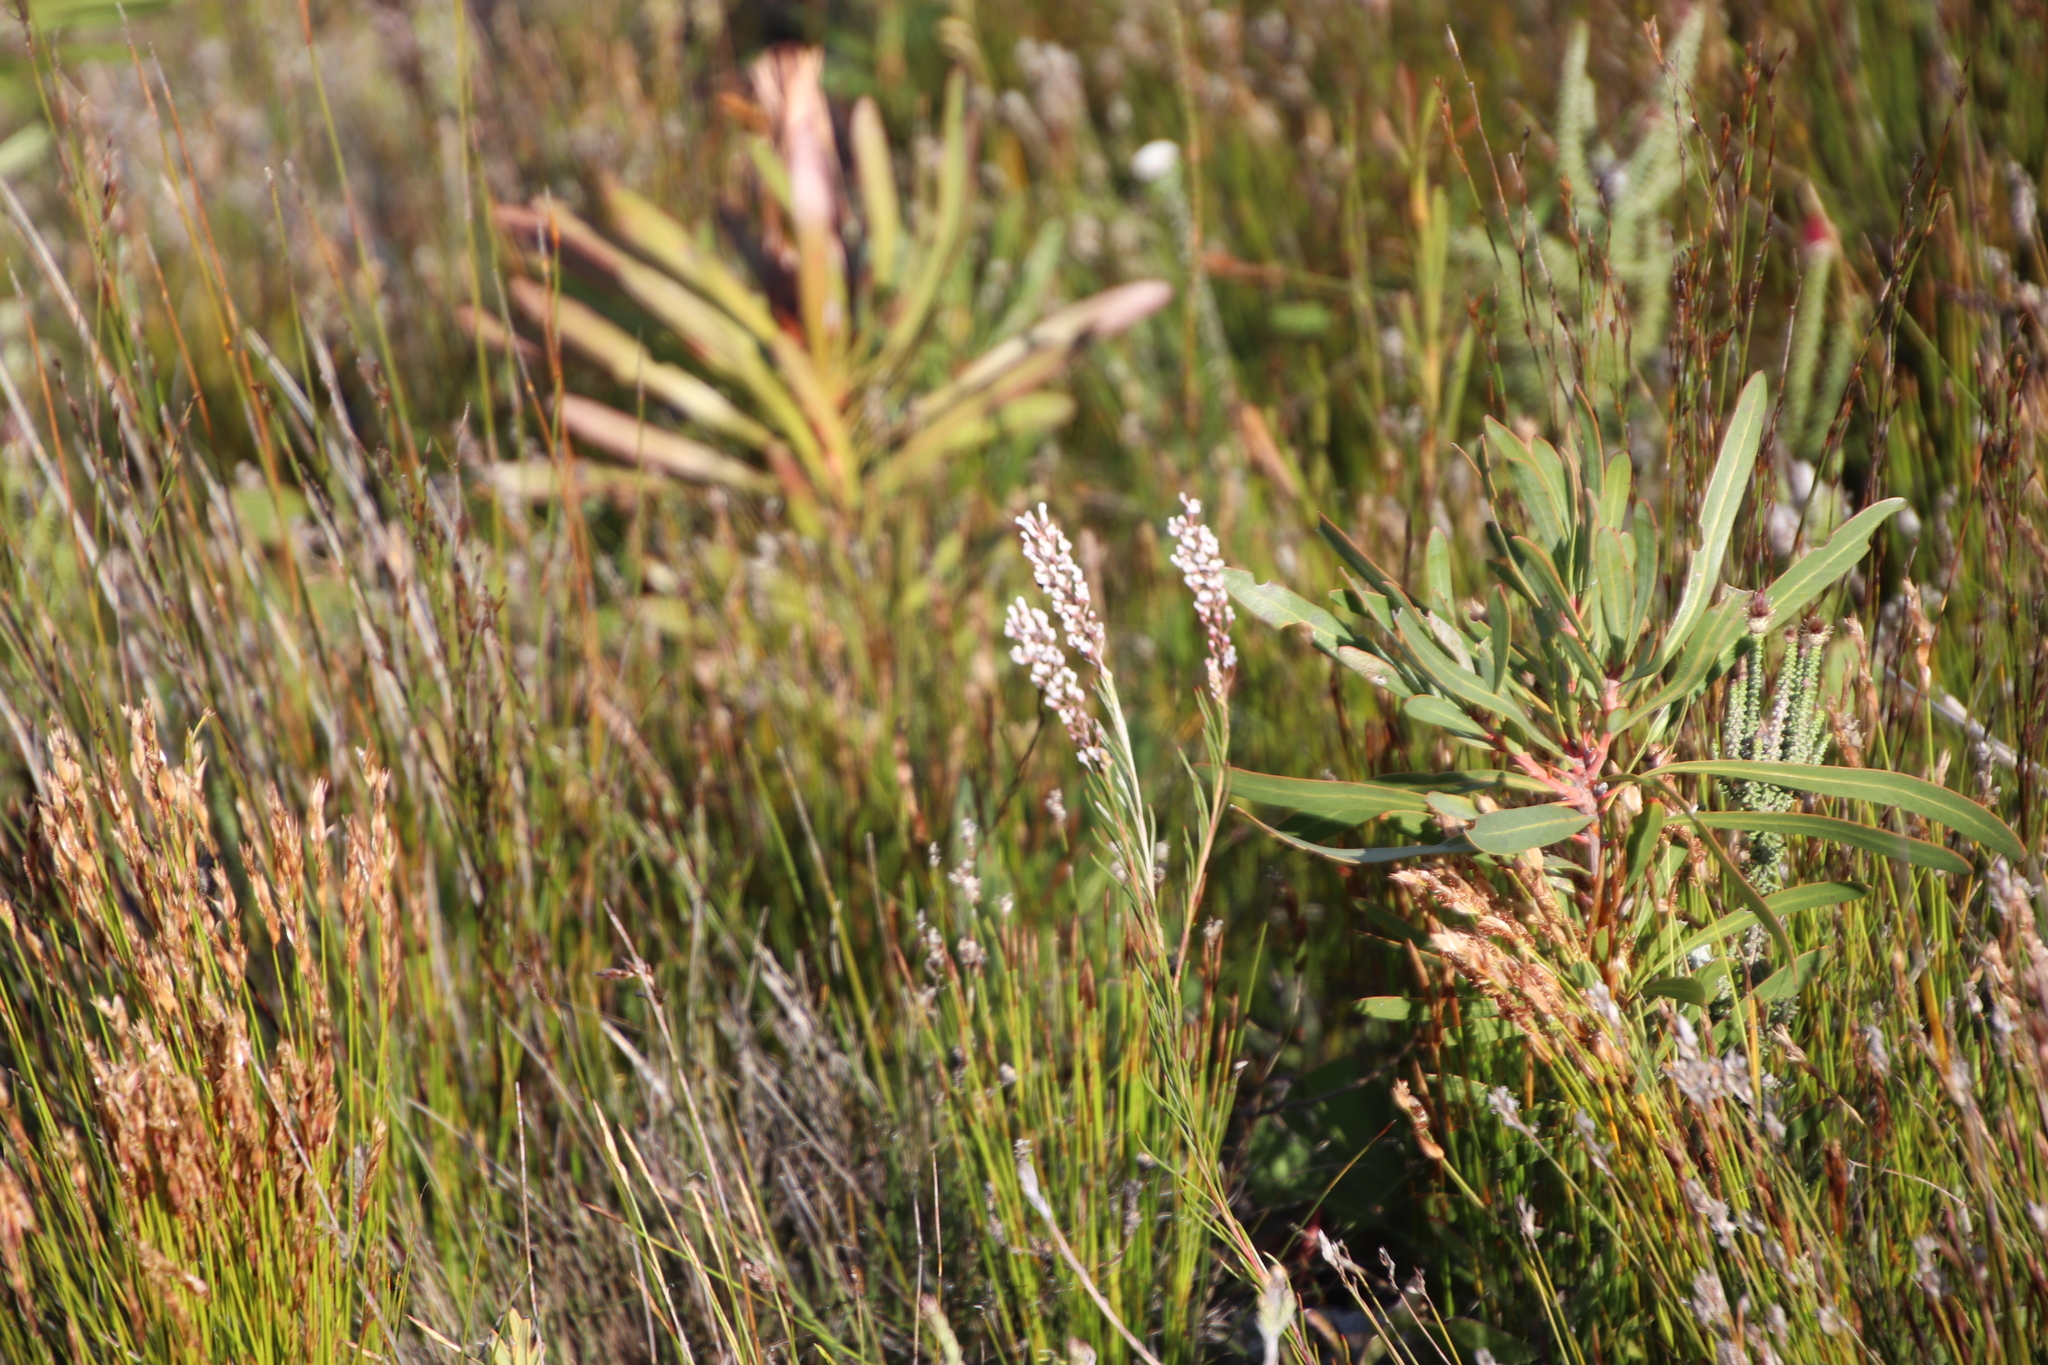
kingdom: Plantae
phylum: Tracheophyta
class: Magnoliopsida
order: Proteales
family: Proteaceae
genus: Spatalla
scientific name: Spatalla racemosa
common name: Lax-stalked spoon
